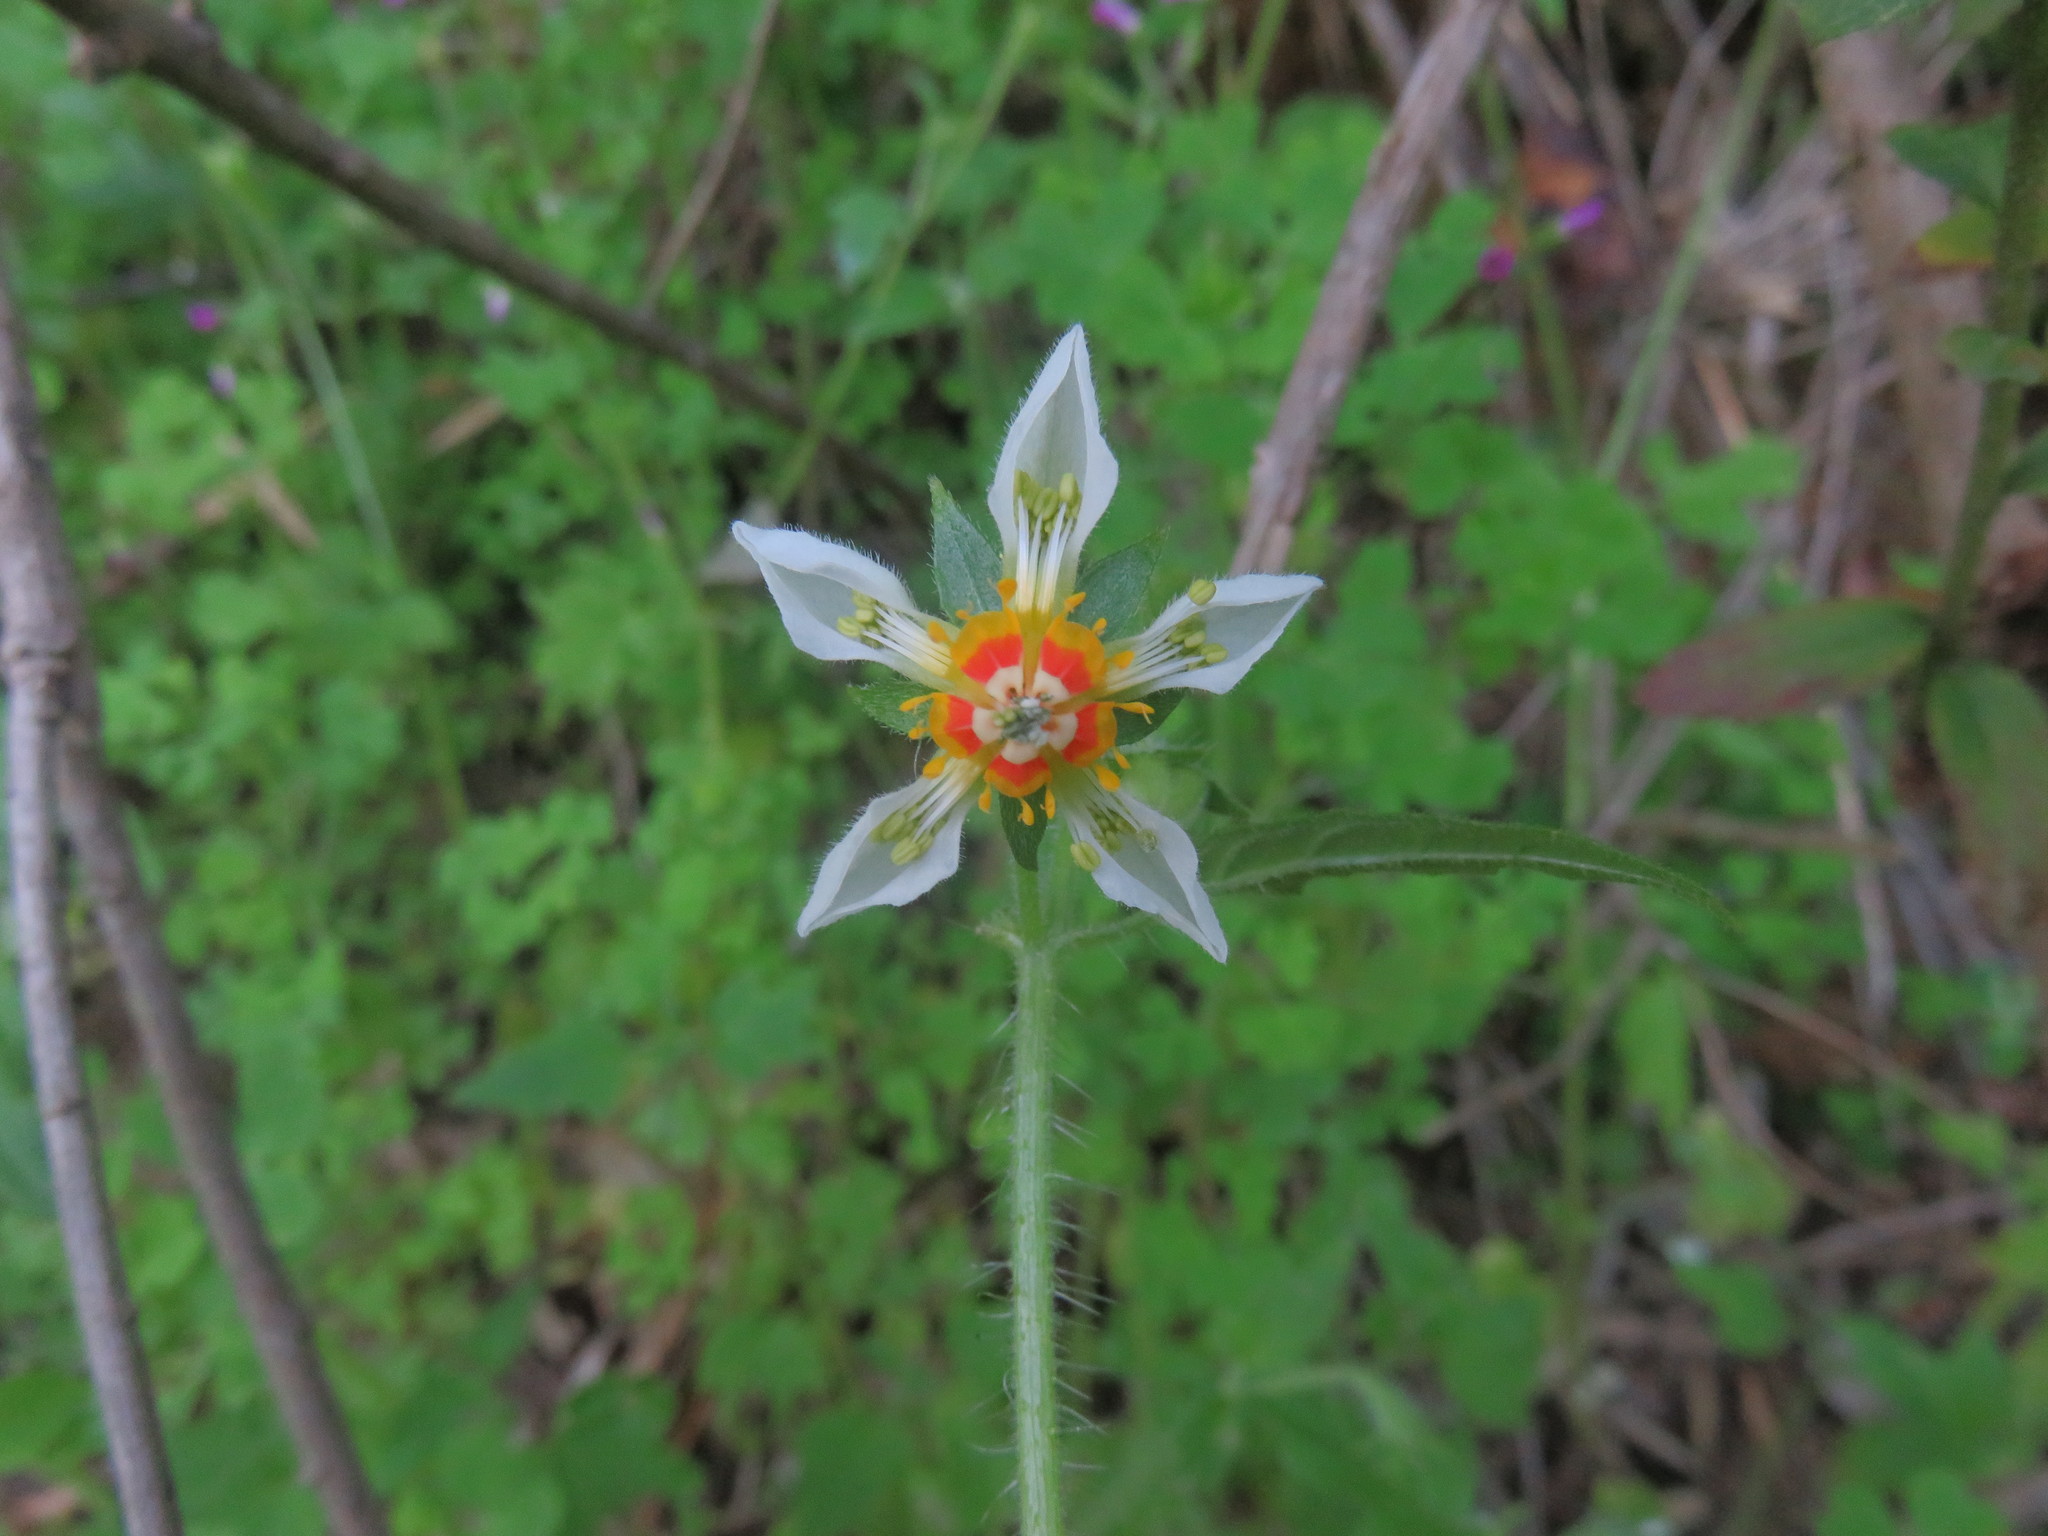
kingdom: Plantae
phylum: Tracheophyta
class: Magnoliopsida
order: Cornales
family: Loasaceae
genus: Loasa
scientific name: Loasa triloba
